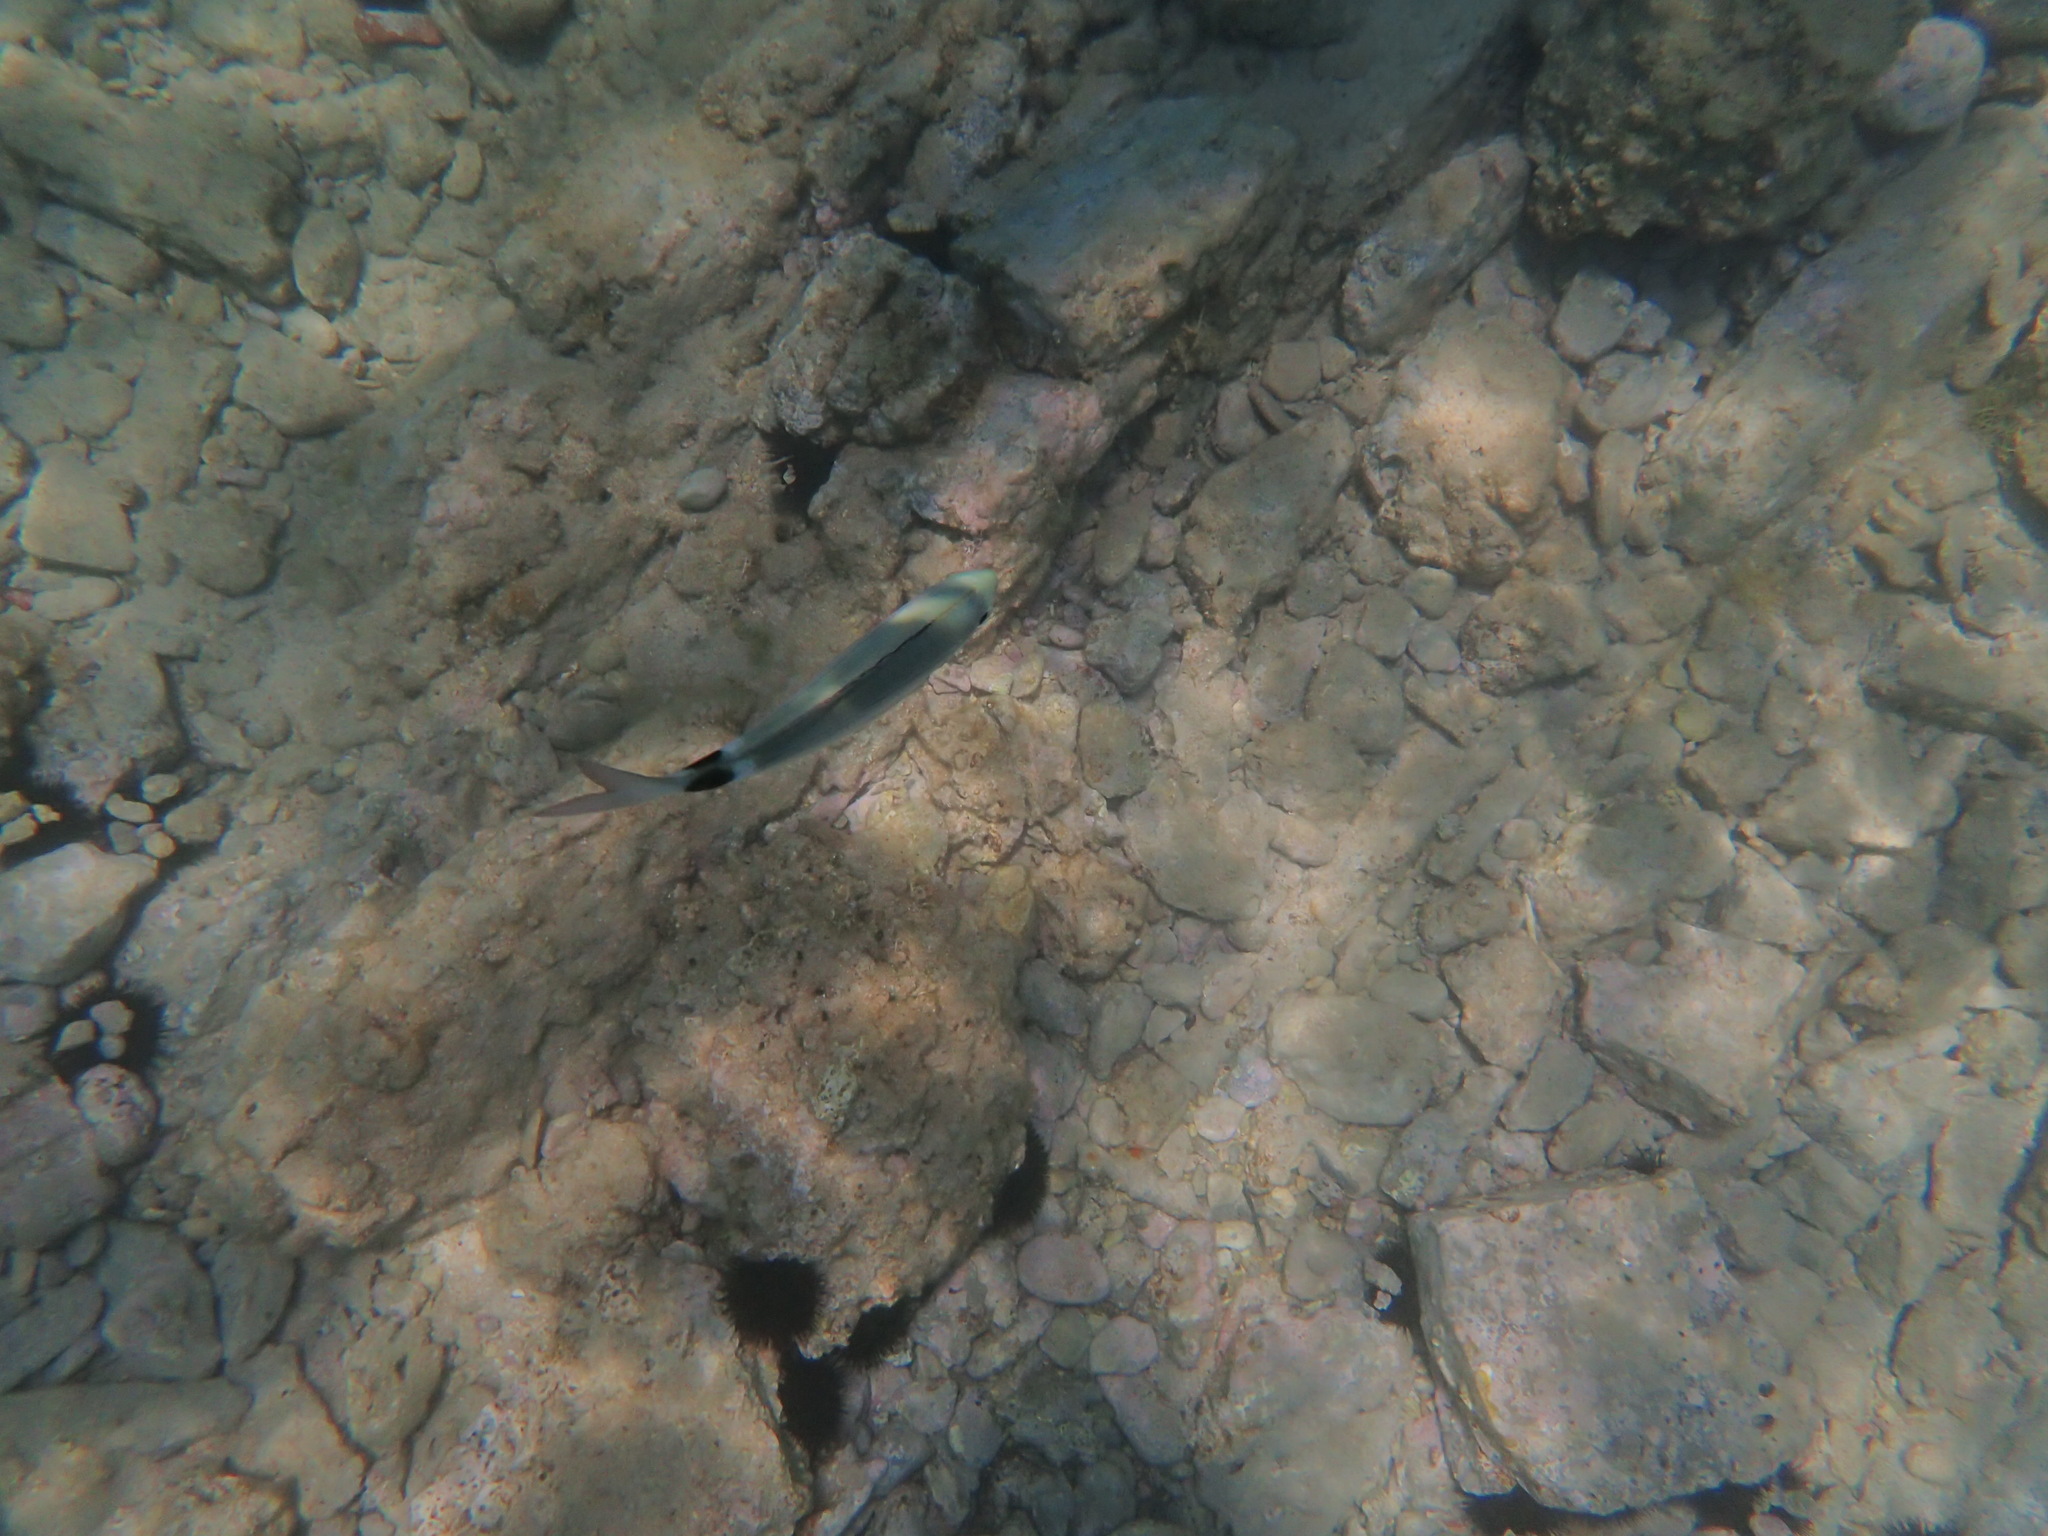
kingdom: Animalia
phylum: Chordata
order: Perciformes
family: Sparidae
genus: Oblada
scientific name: Oblada melanura
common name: Saddled seabream
